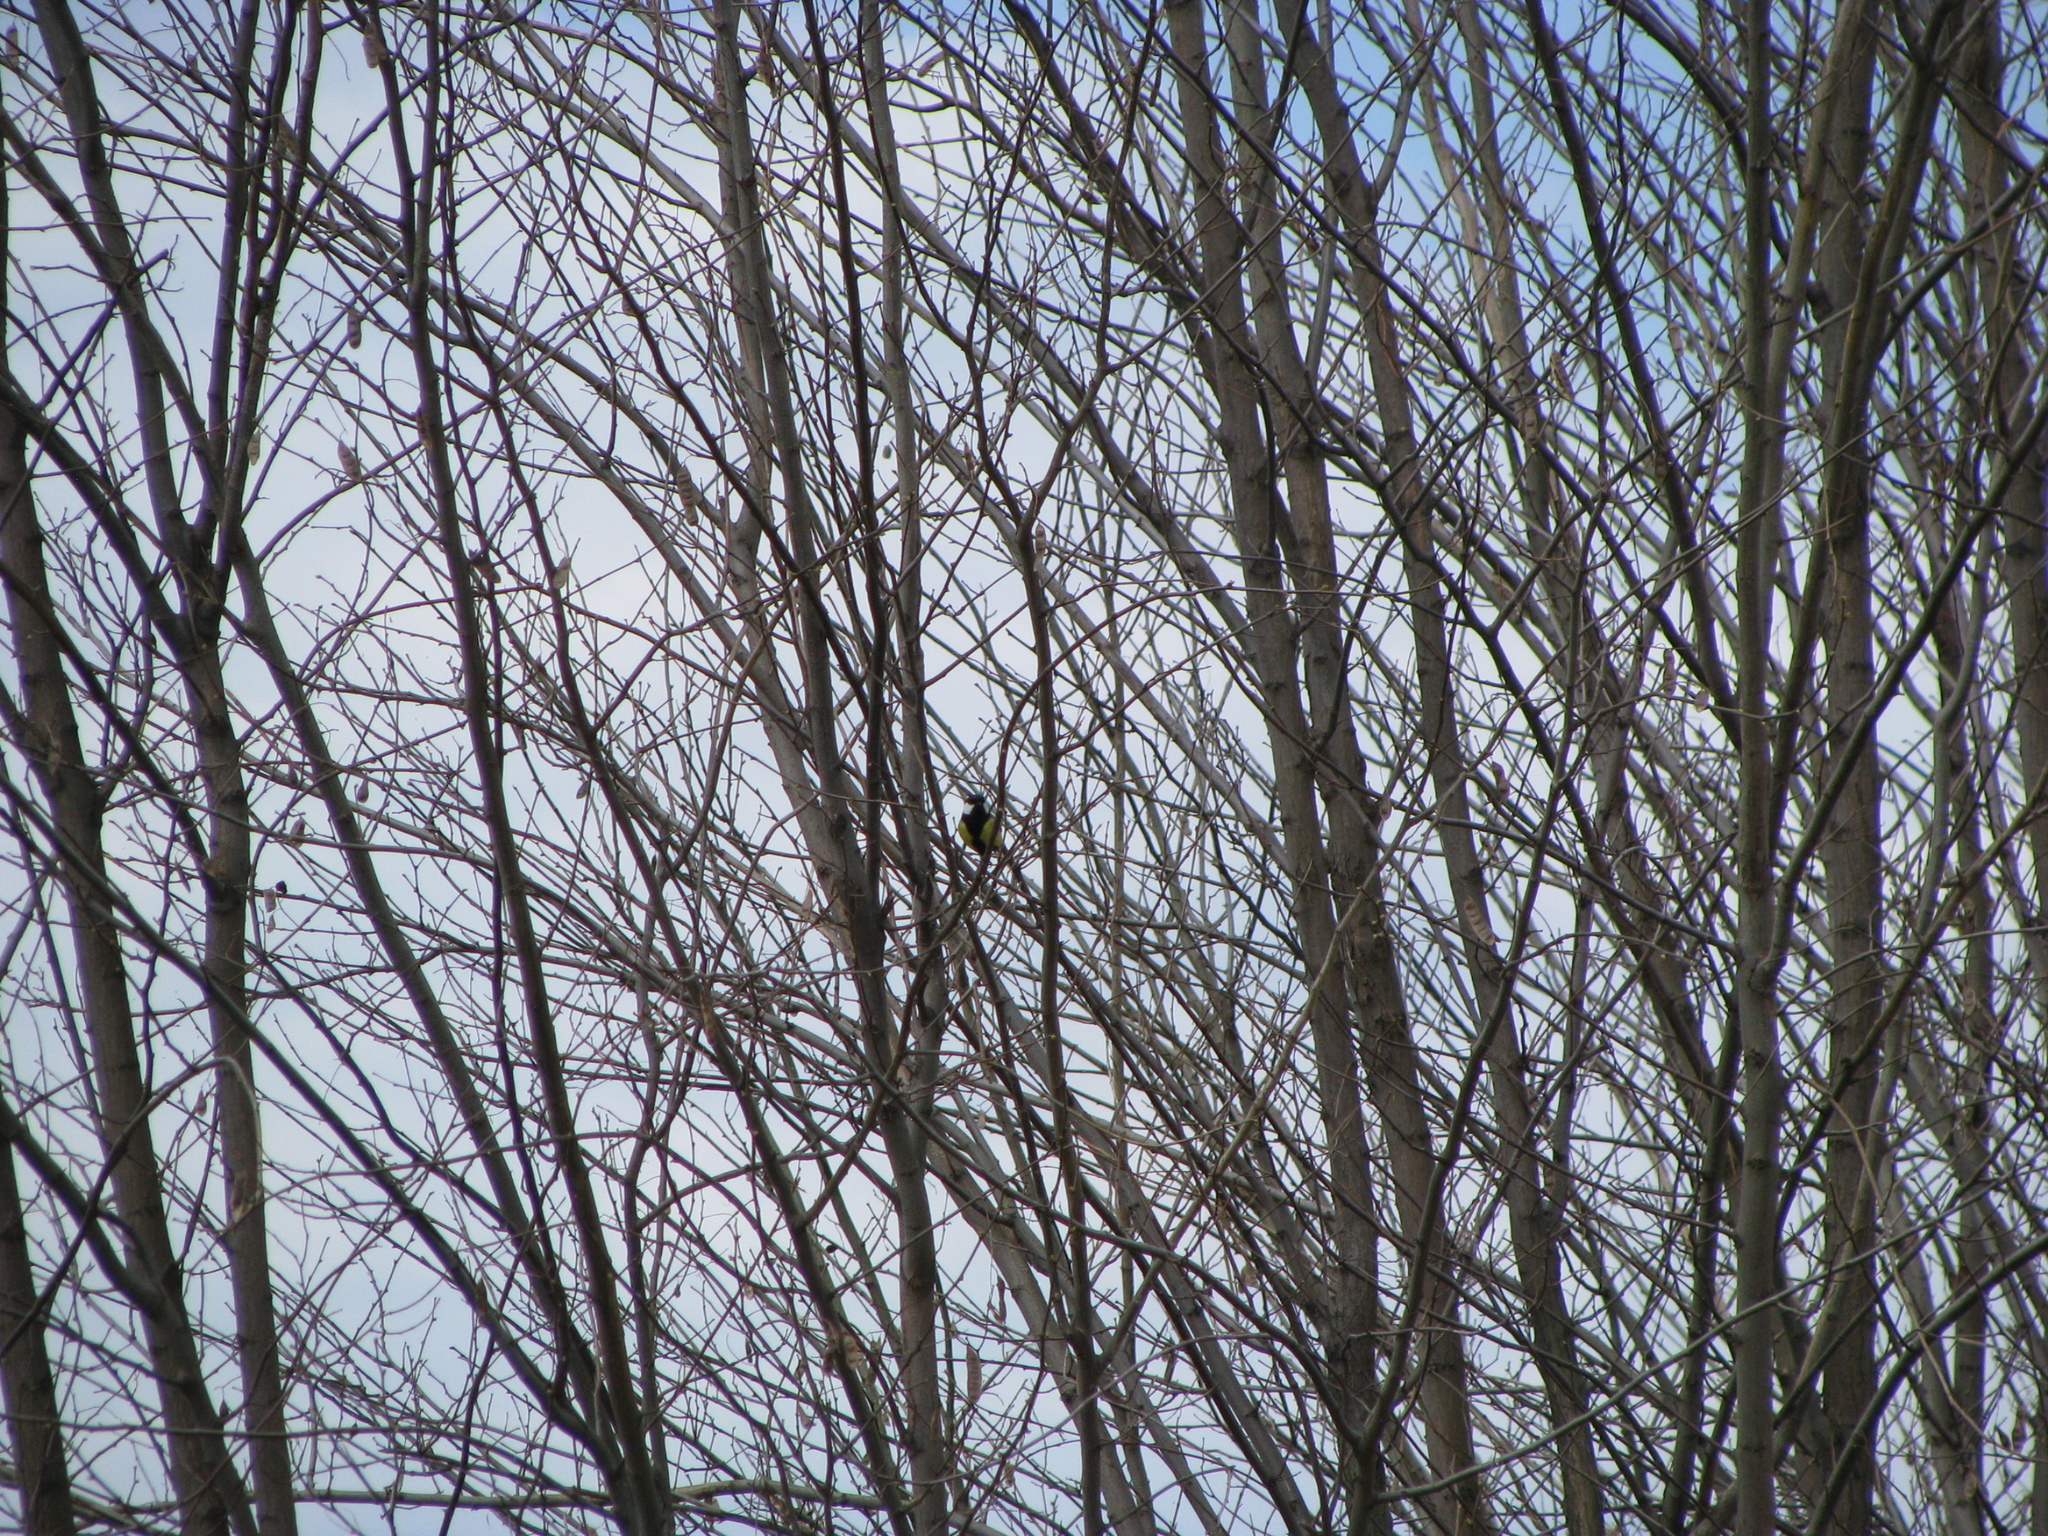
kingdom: Animalia
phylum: Chordata
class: Aves
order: Passeriformes
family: Paridae
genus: Parus
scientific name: Parus major
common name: Great tit
